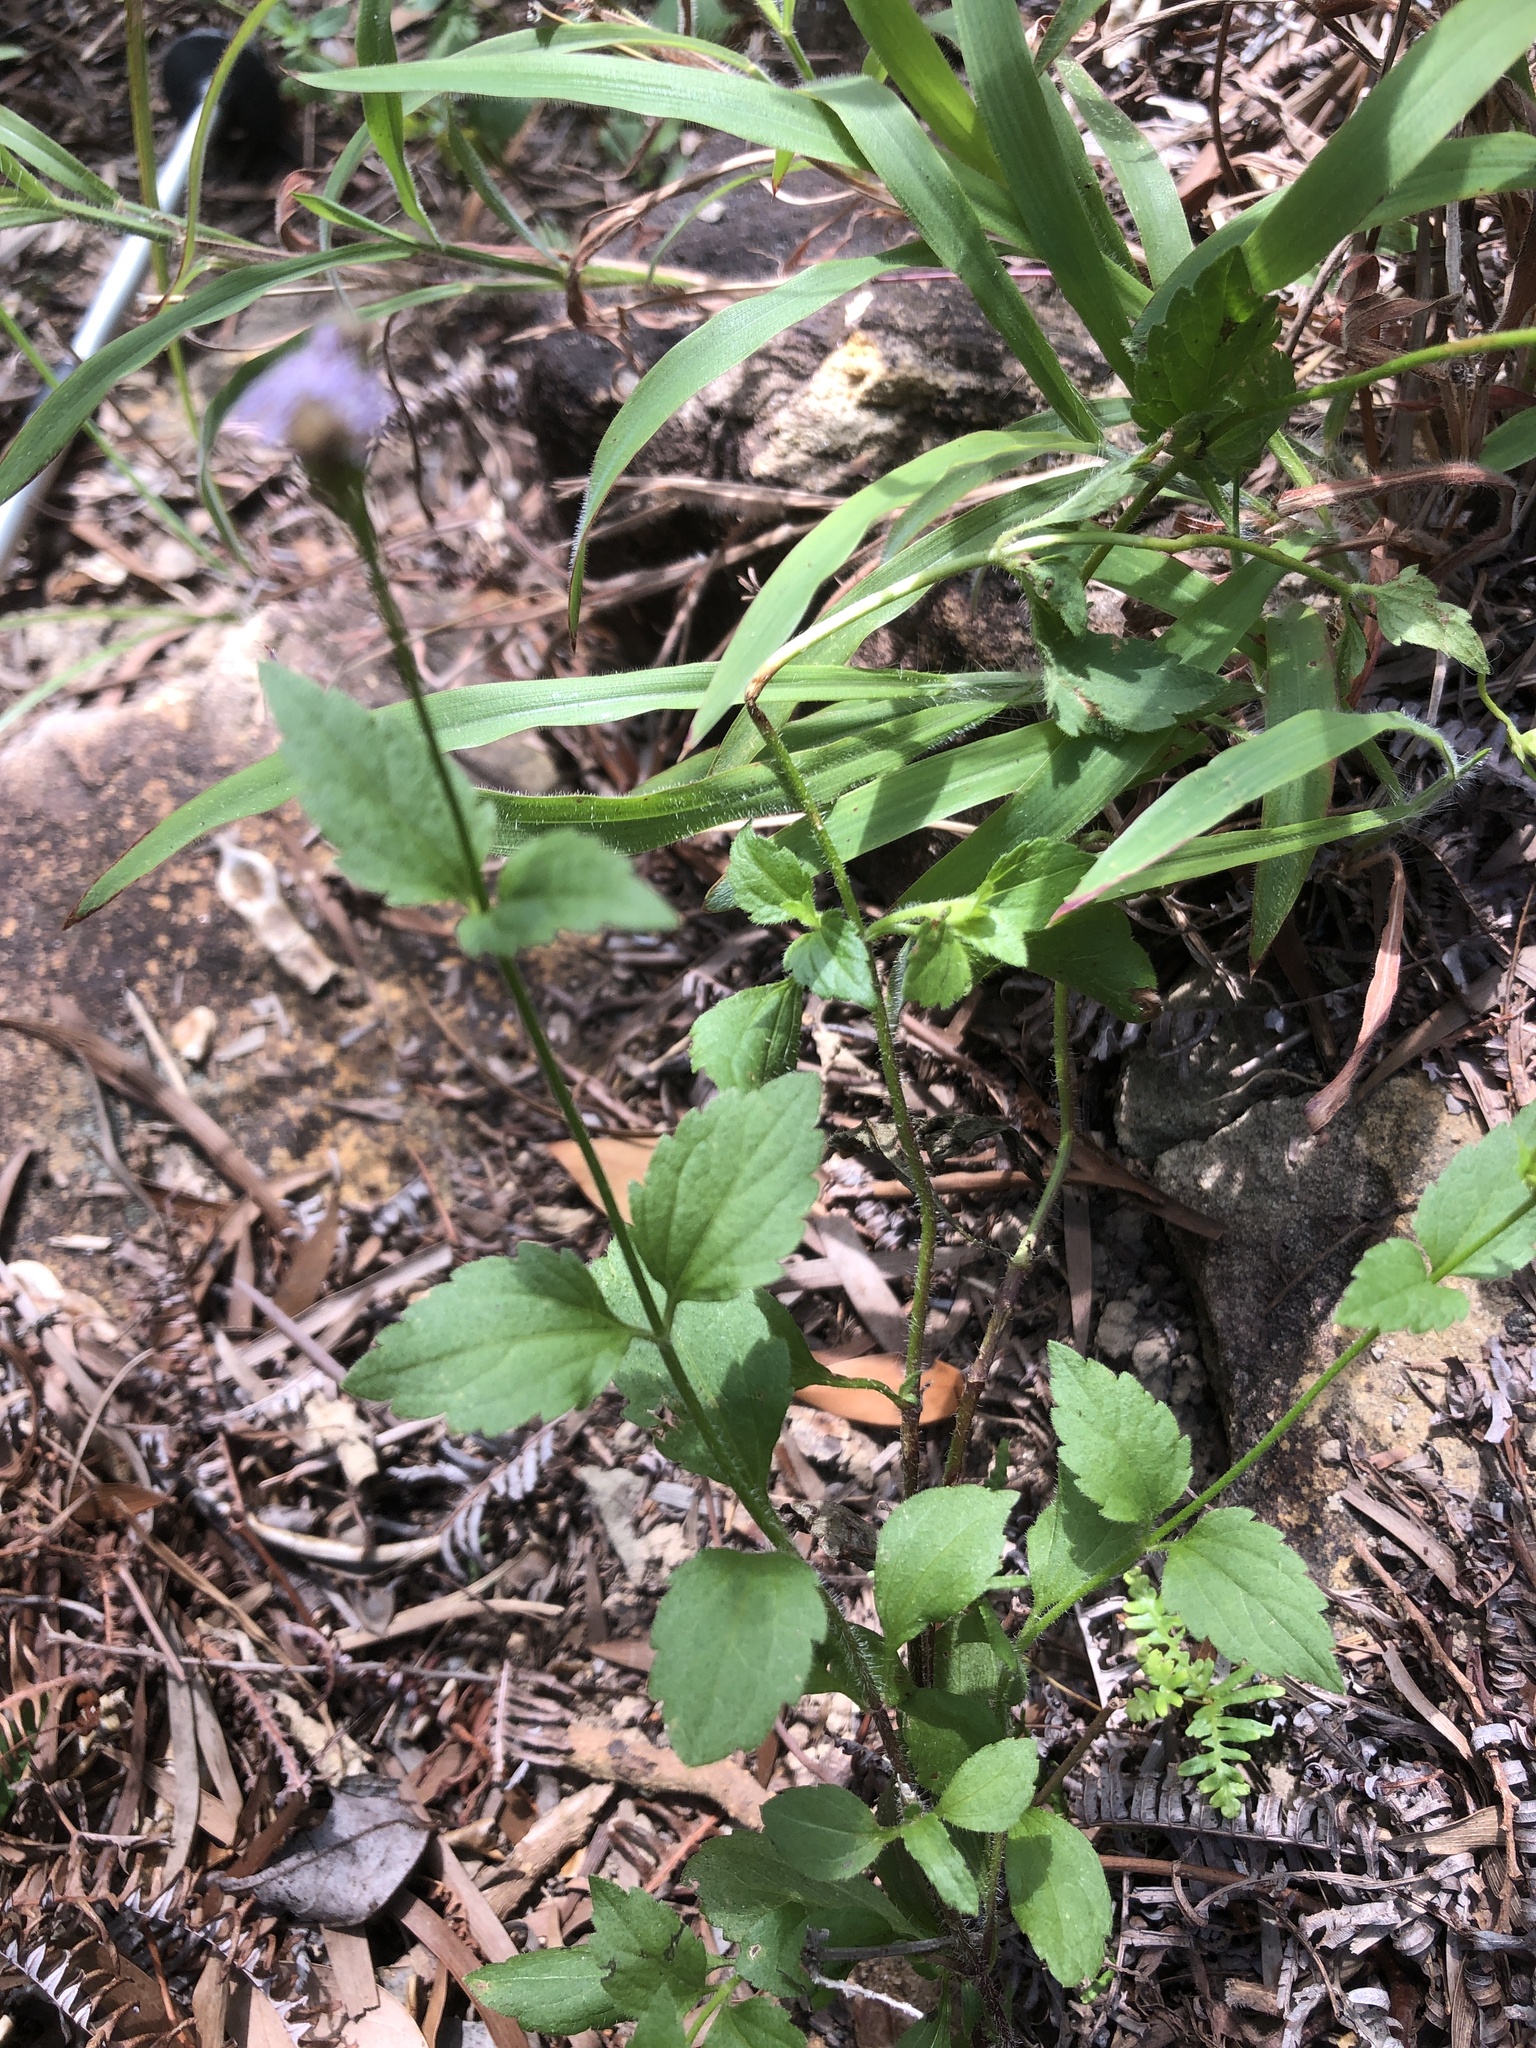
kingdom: Plantae
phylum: Tracheophyta
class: Magnoliopsida
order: Asterales
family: Asteraceae
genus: Praxelis
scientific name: Praxelis clematidea
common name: Praxelis
